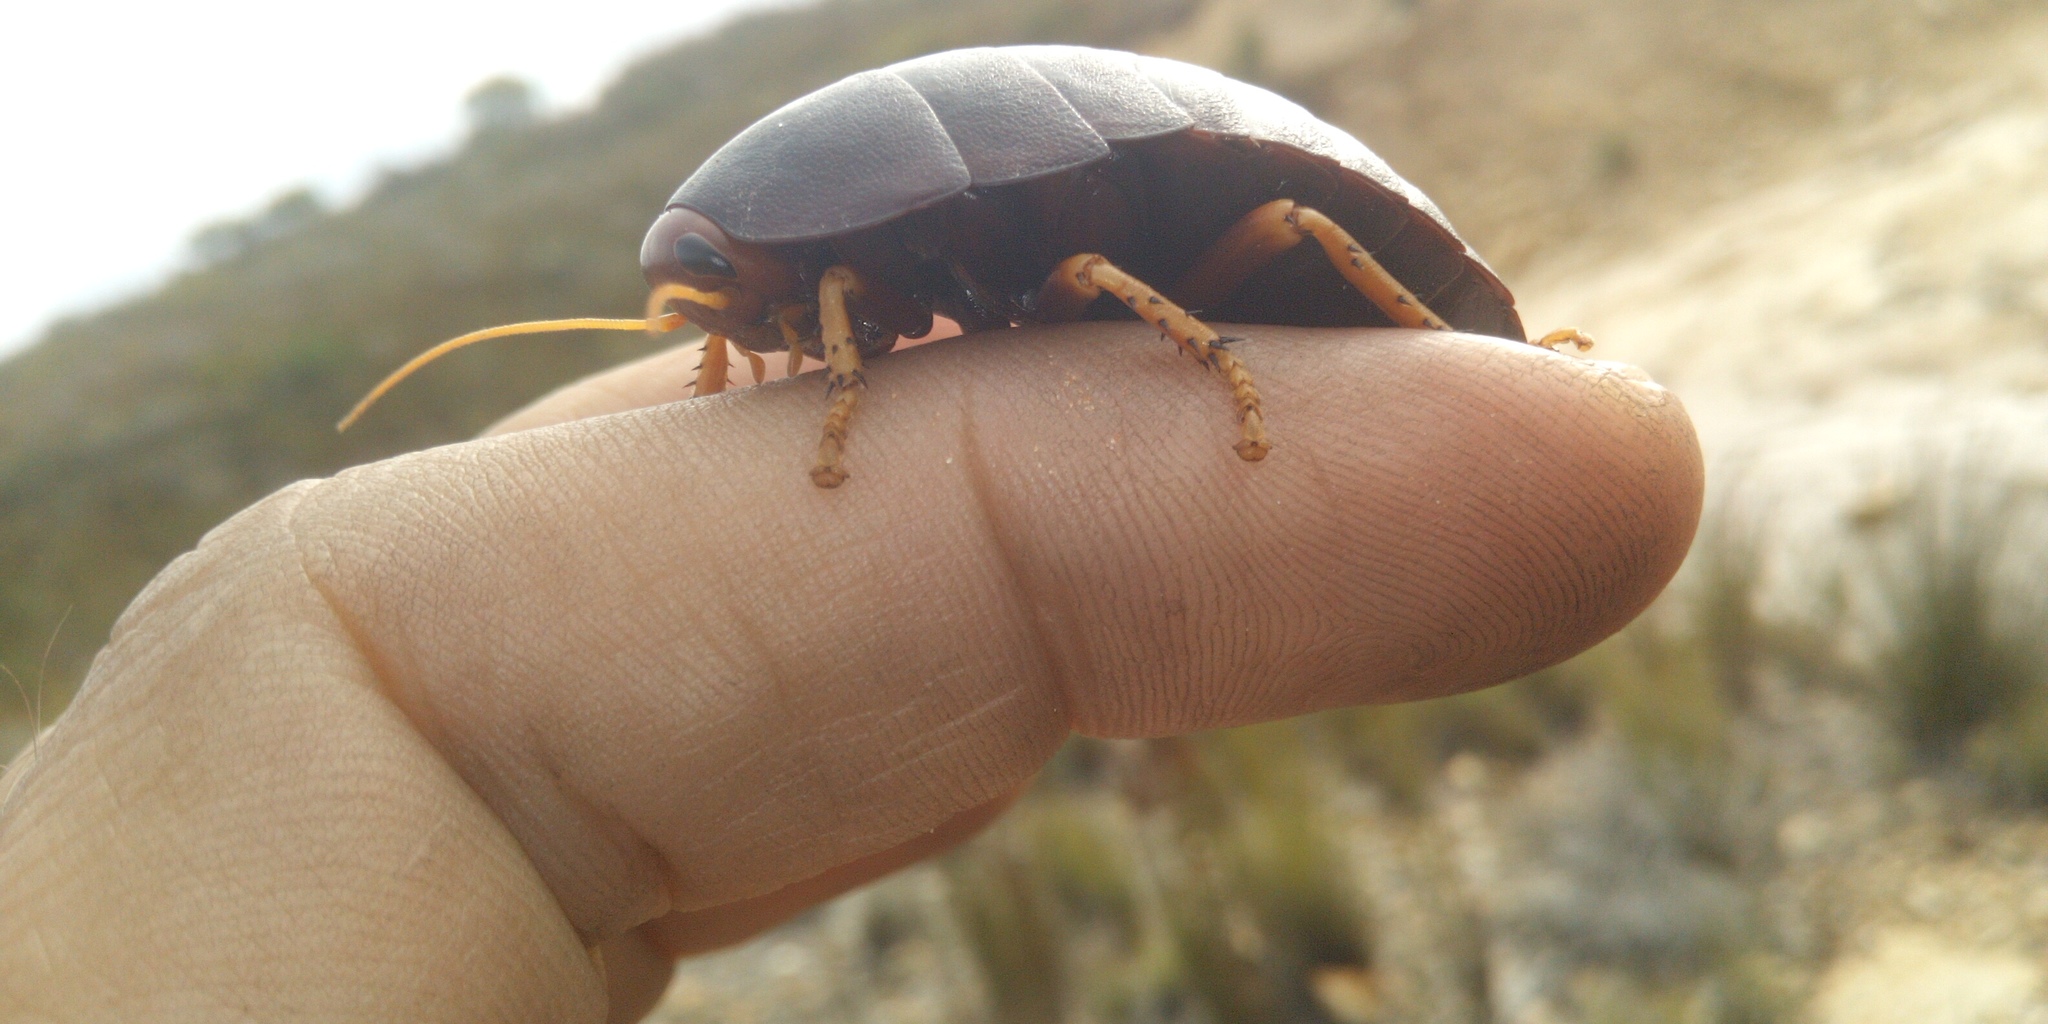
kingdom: Animalia
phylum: Arthropoda
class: Insecta
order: Blattodea
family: Blaberidae
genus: Aptera
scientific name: Aptera fusca
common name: Cape mountain cockroach
